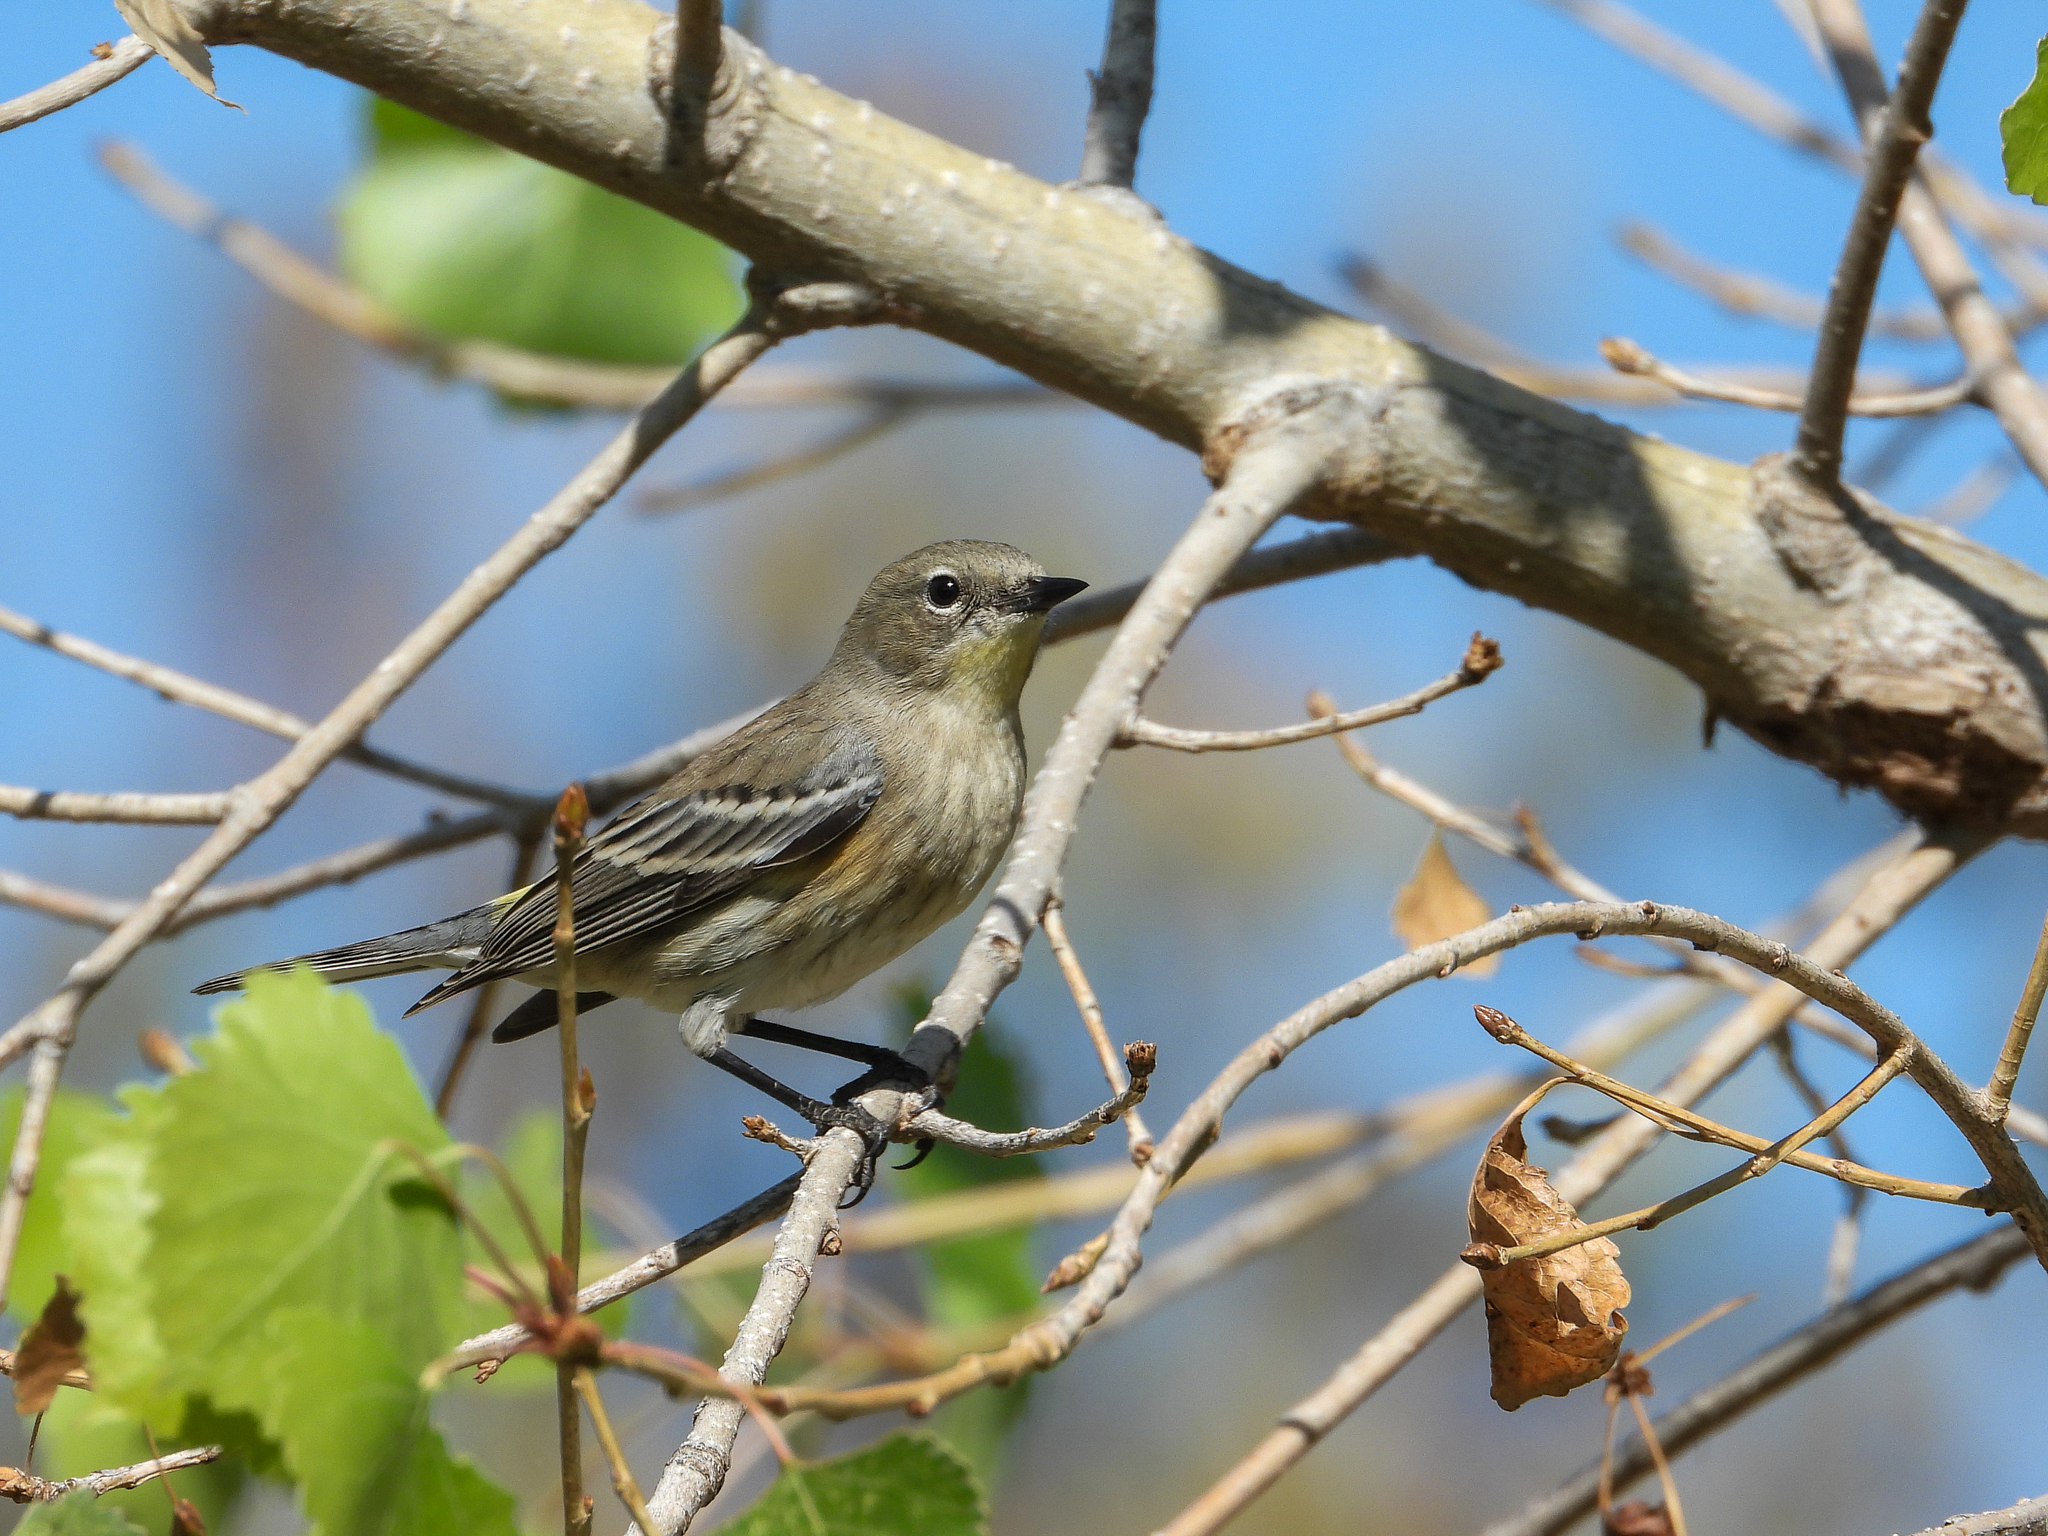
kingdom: Animalia
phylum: Chordata
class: Aves
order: Passeriformes
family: Parulidae
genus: Setophaga
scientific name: Setophaga coronata
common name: Myrtle warbler
